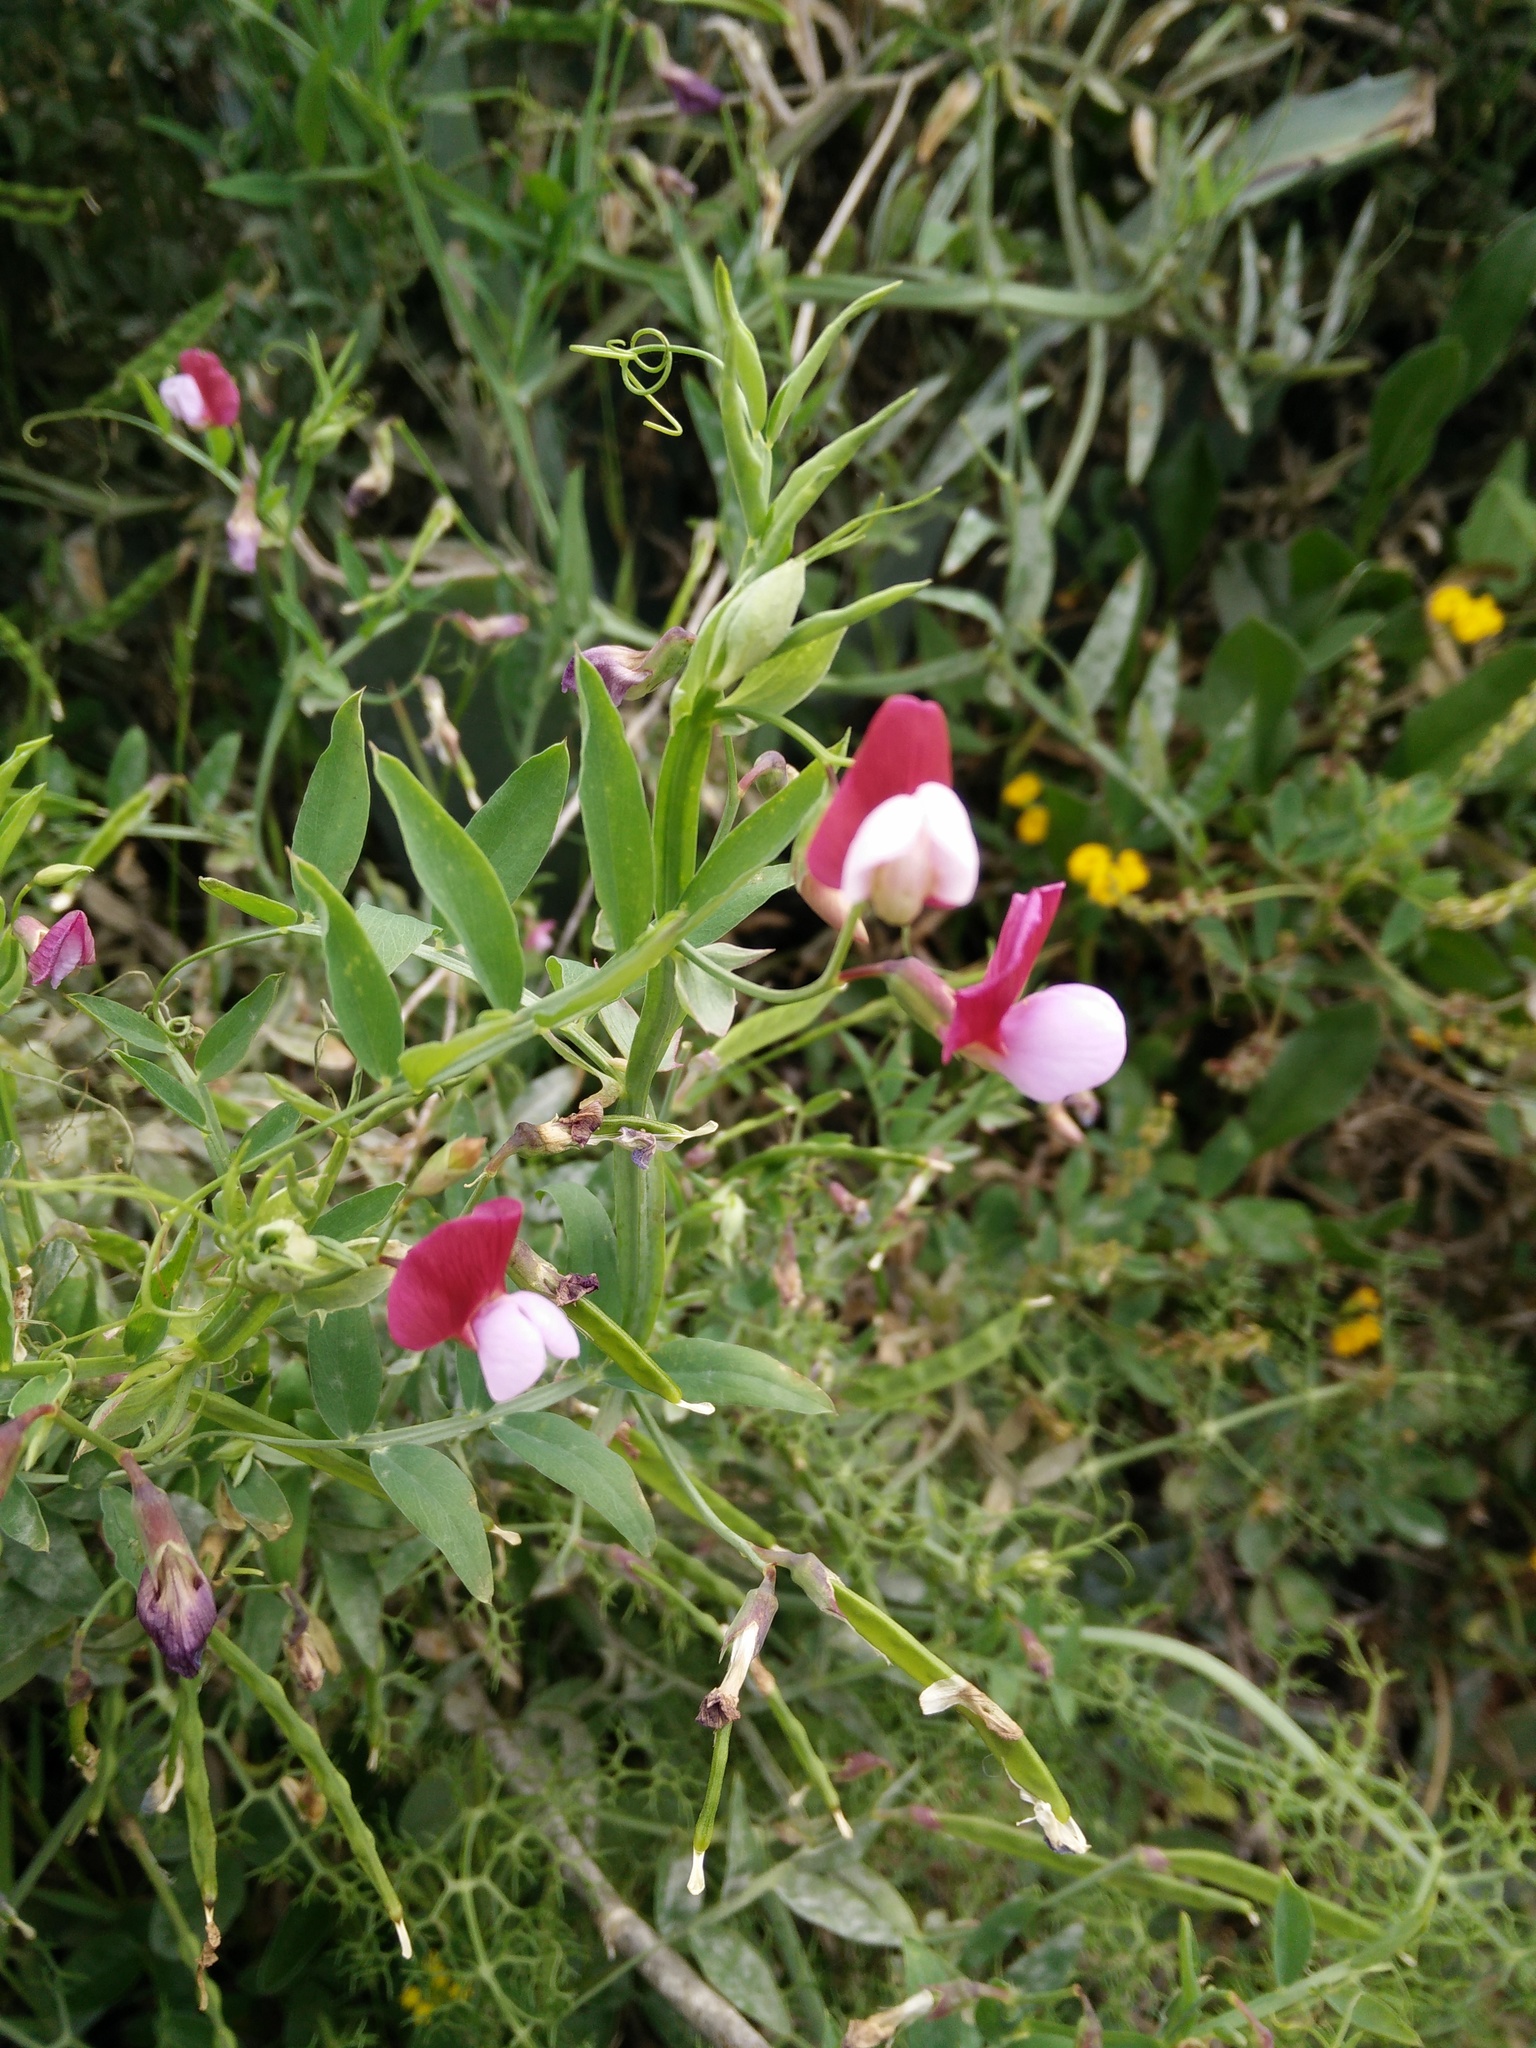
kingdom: Plantae
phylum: Tracheophyta
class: Magnoliopsida
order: Fabales
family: Fabaceae
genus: Lathyrus
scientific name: Lathyrus clymenum
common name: Spanish vetchling
